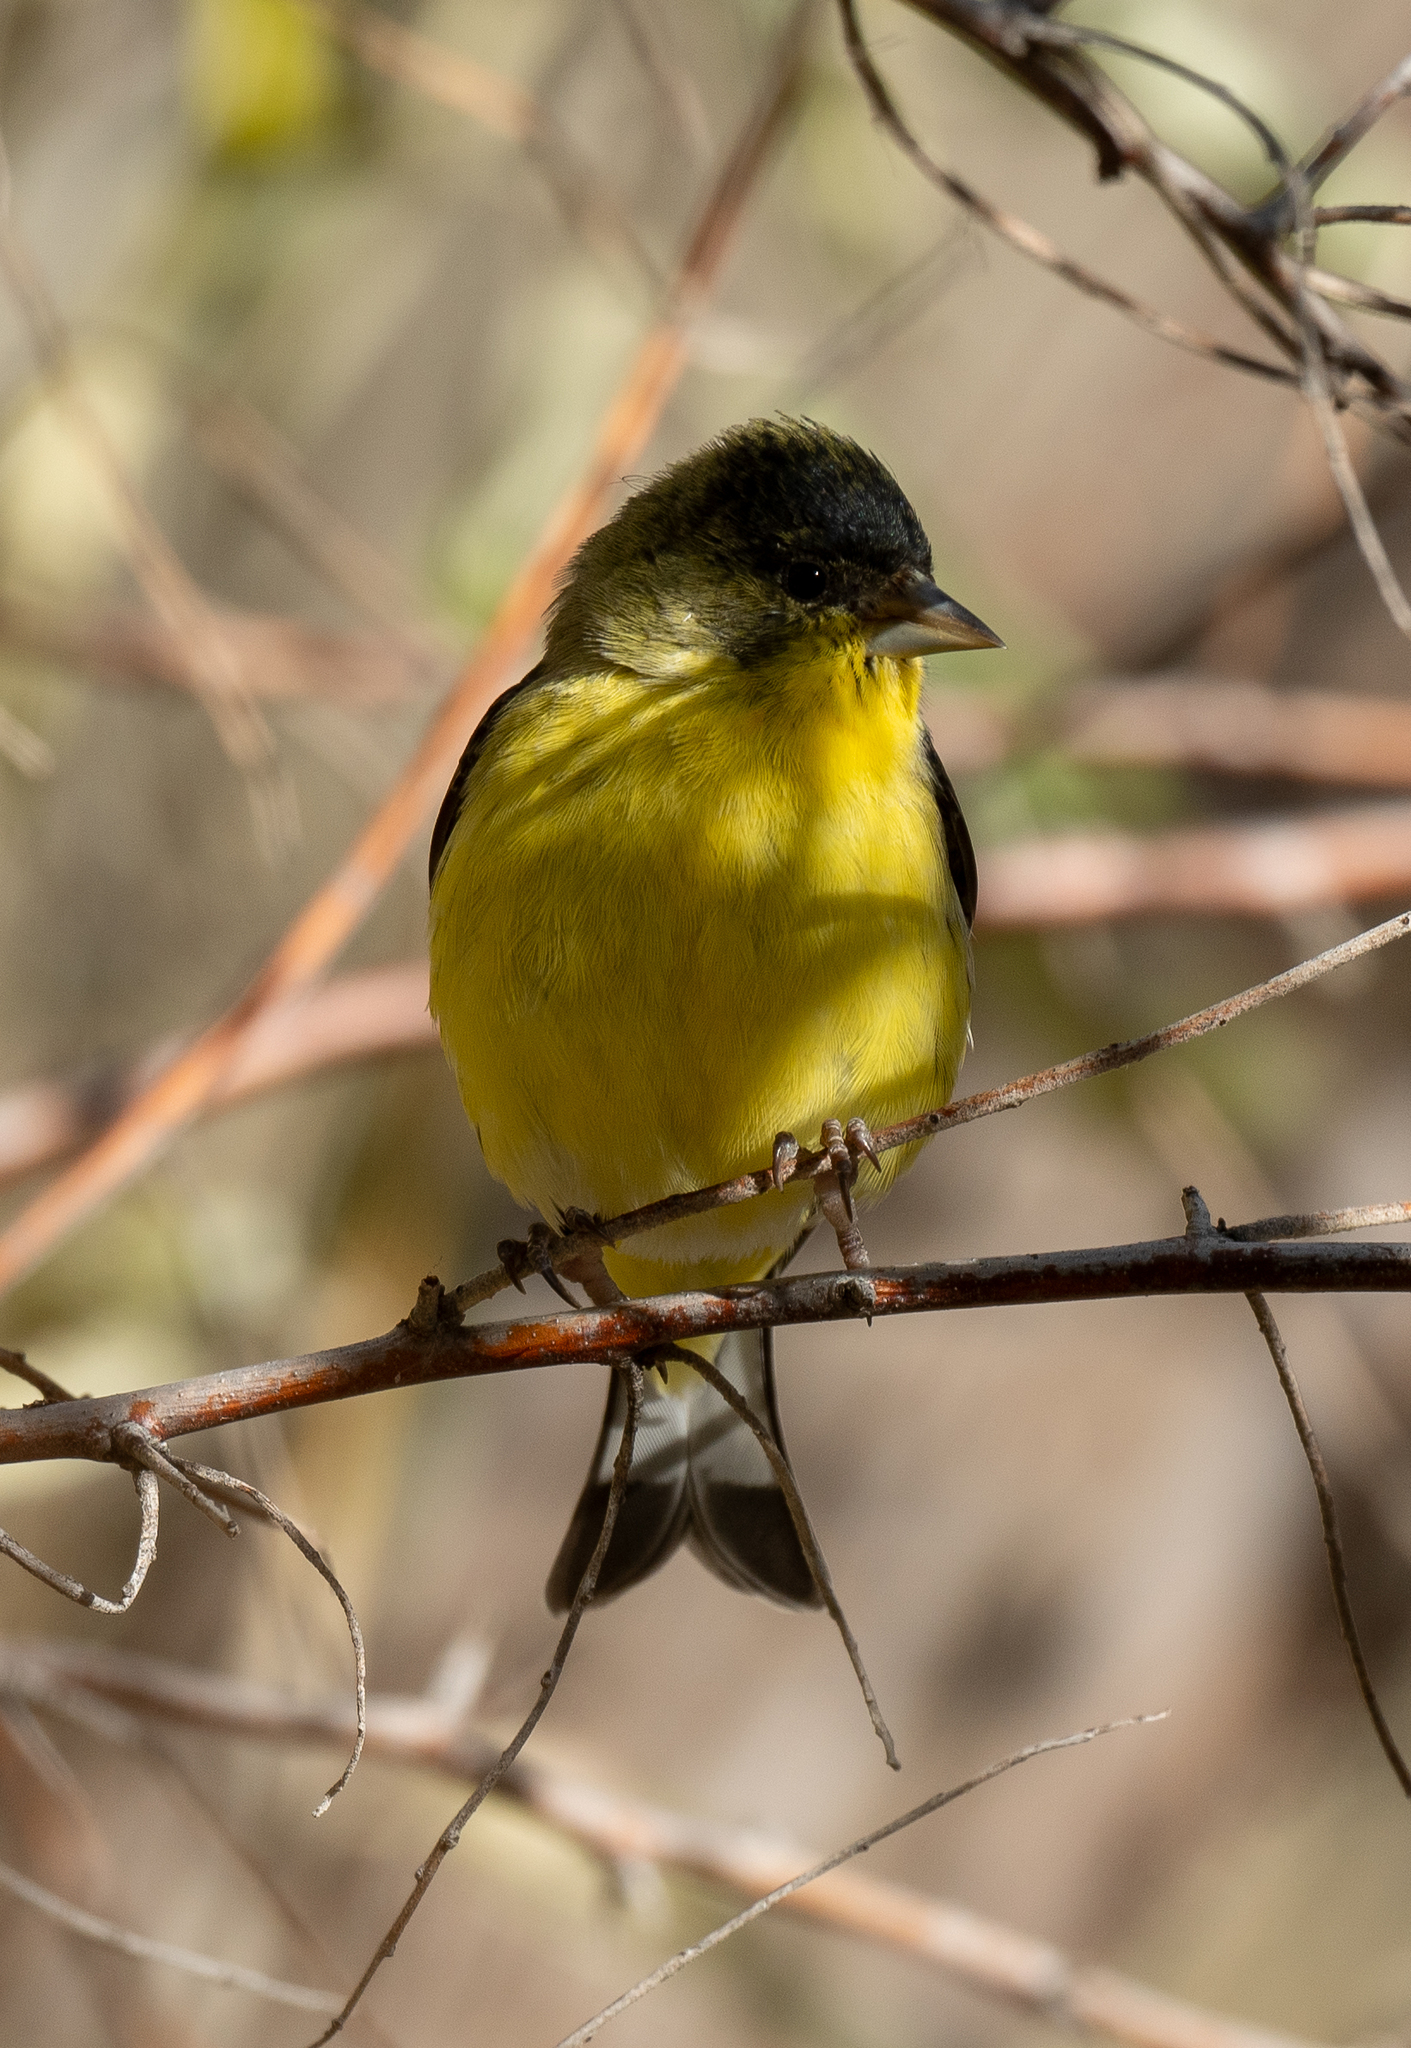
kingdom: Animalia
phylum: Chordata
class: Aves
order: Passeriformes
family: Fringillidae
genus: Spinus
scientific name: Spinus psaltria
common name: Lesser goldfinch
